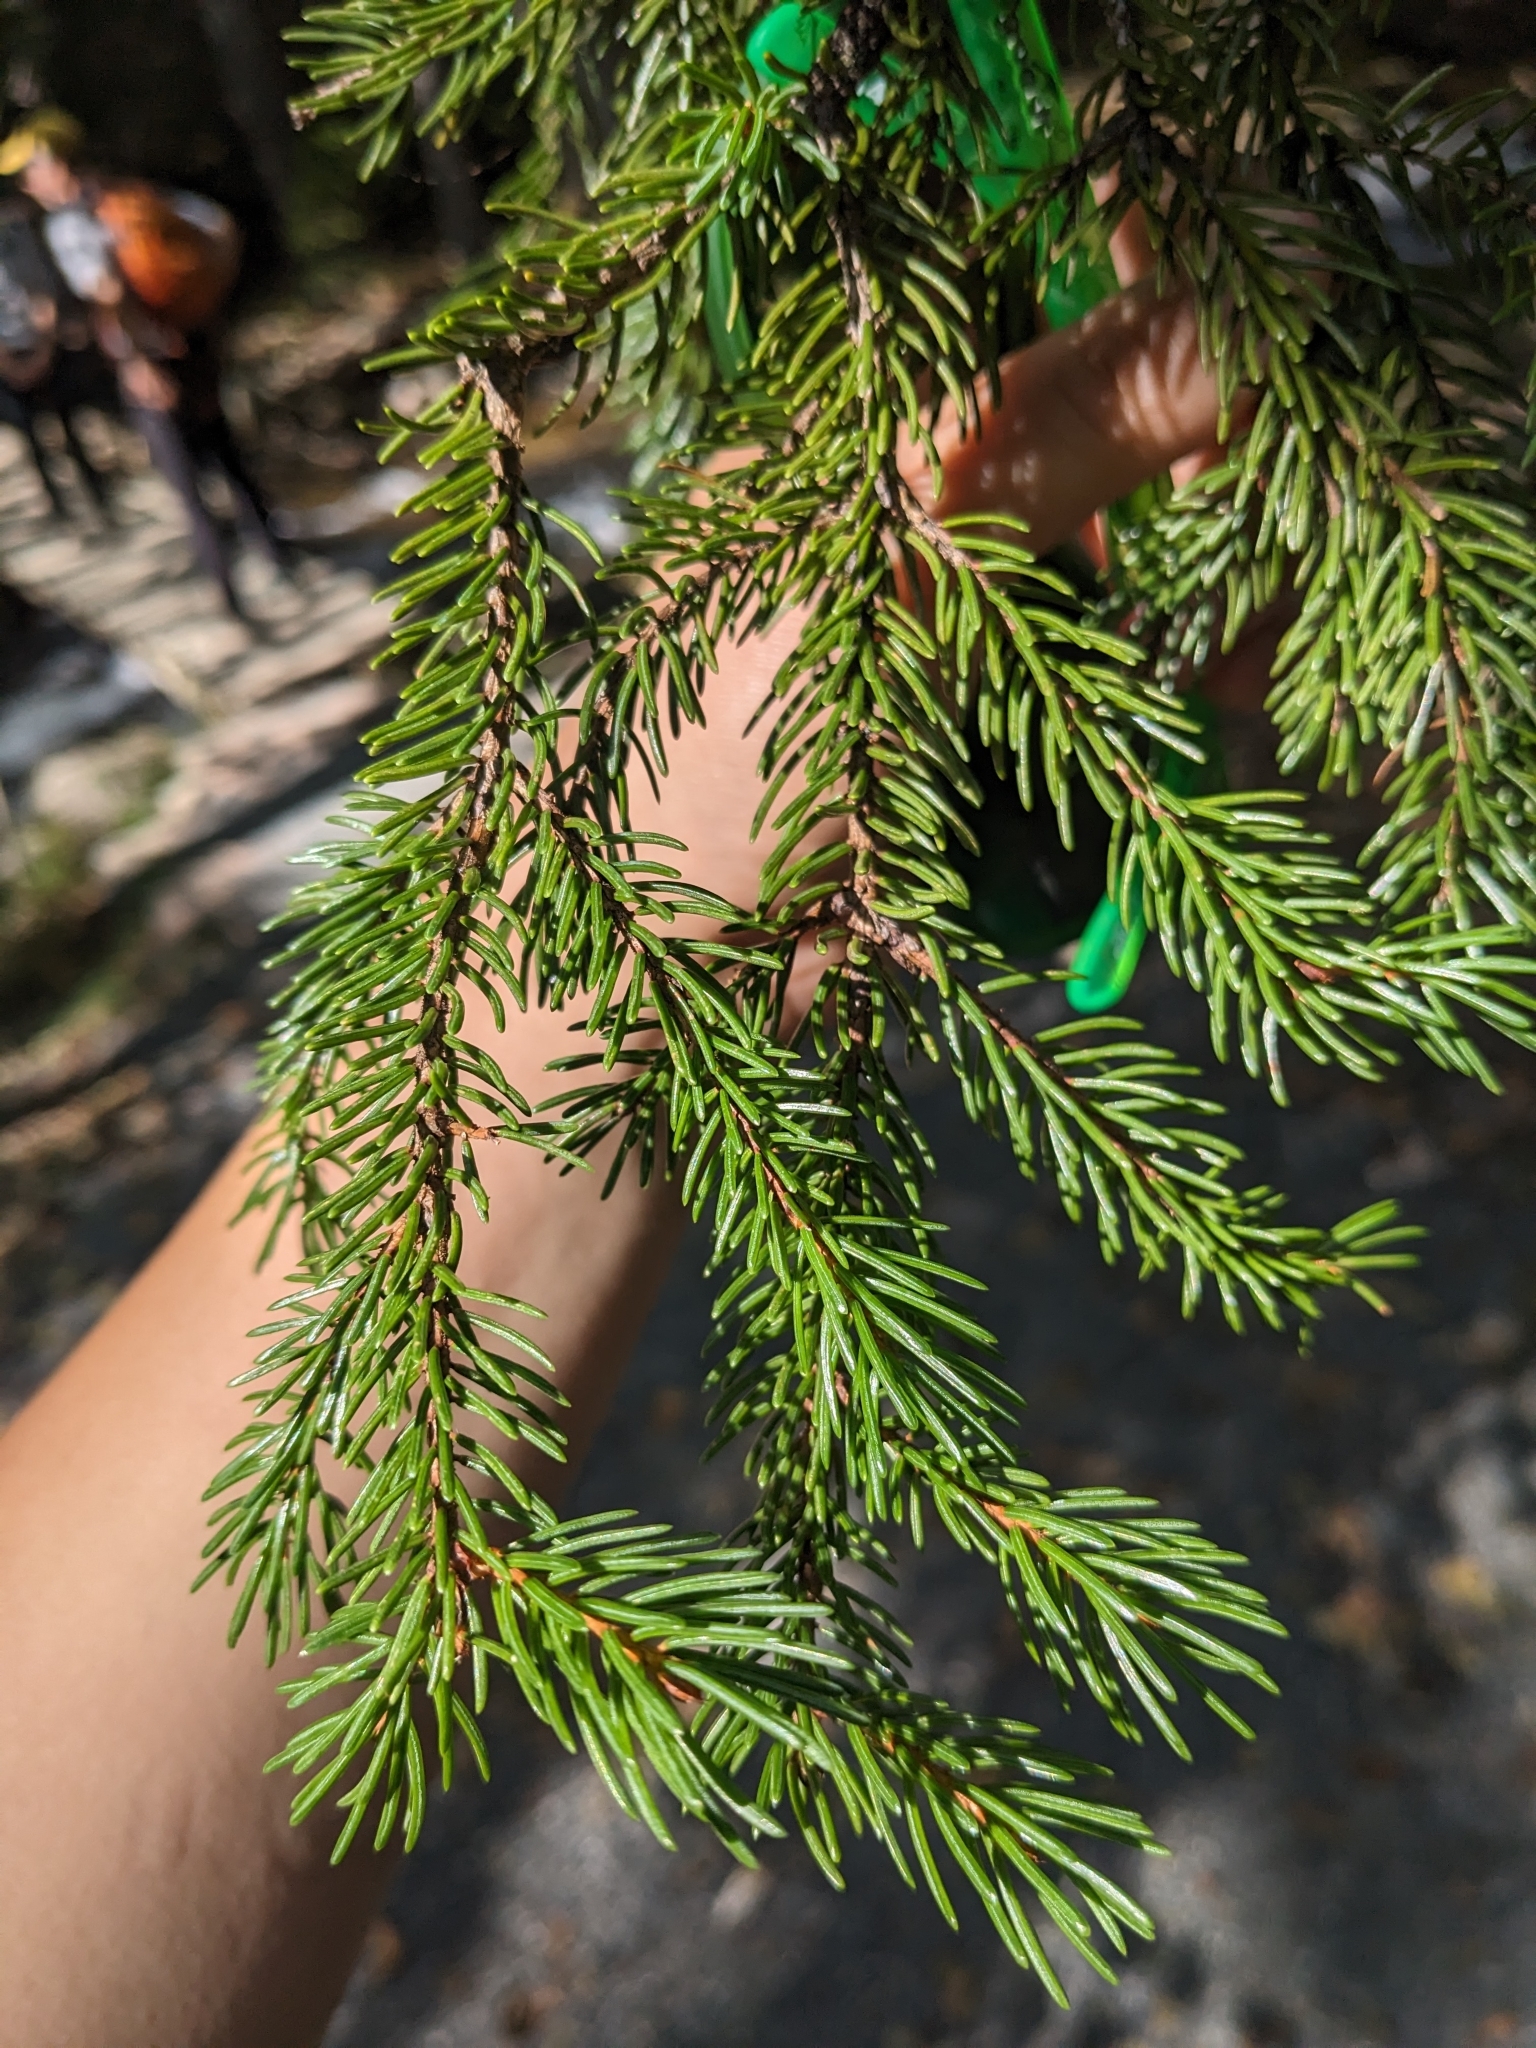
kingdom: Plantae
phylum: Tracheophyta
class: Pinopsida
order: Pinales
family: Pinaceae
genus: Picea
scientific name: Picea rubens
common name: Red spruce
